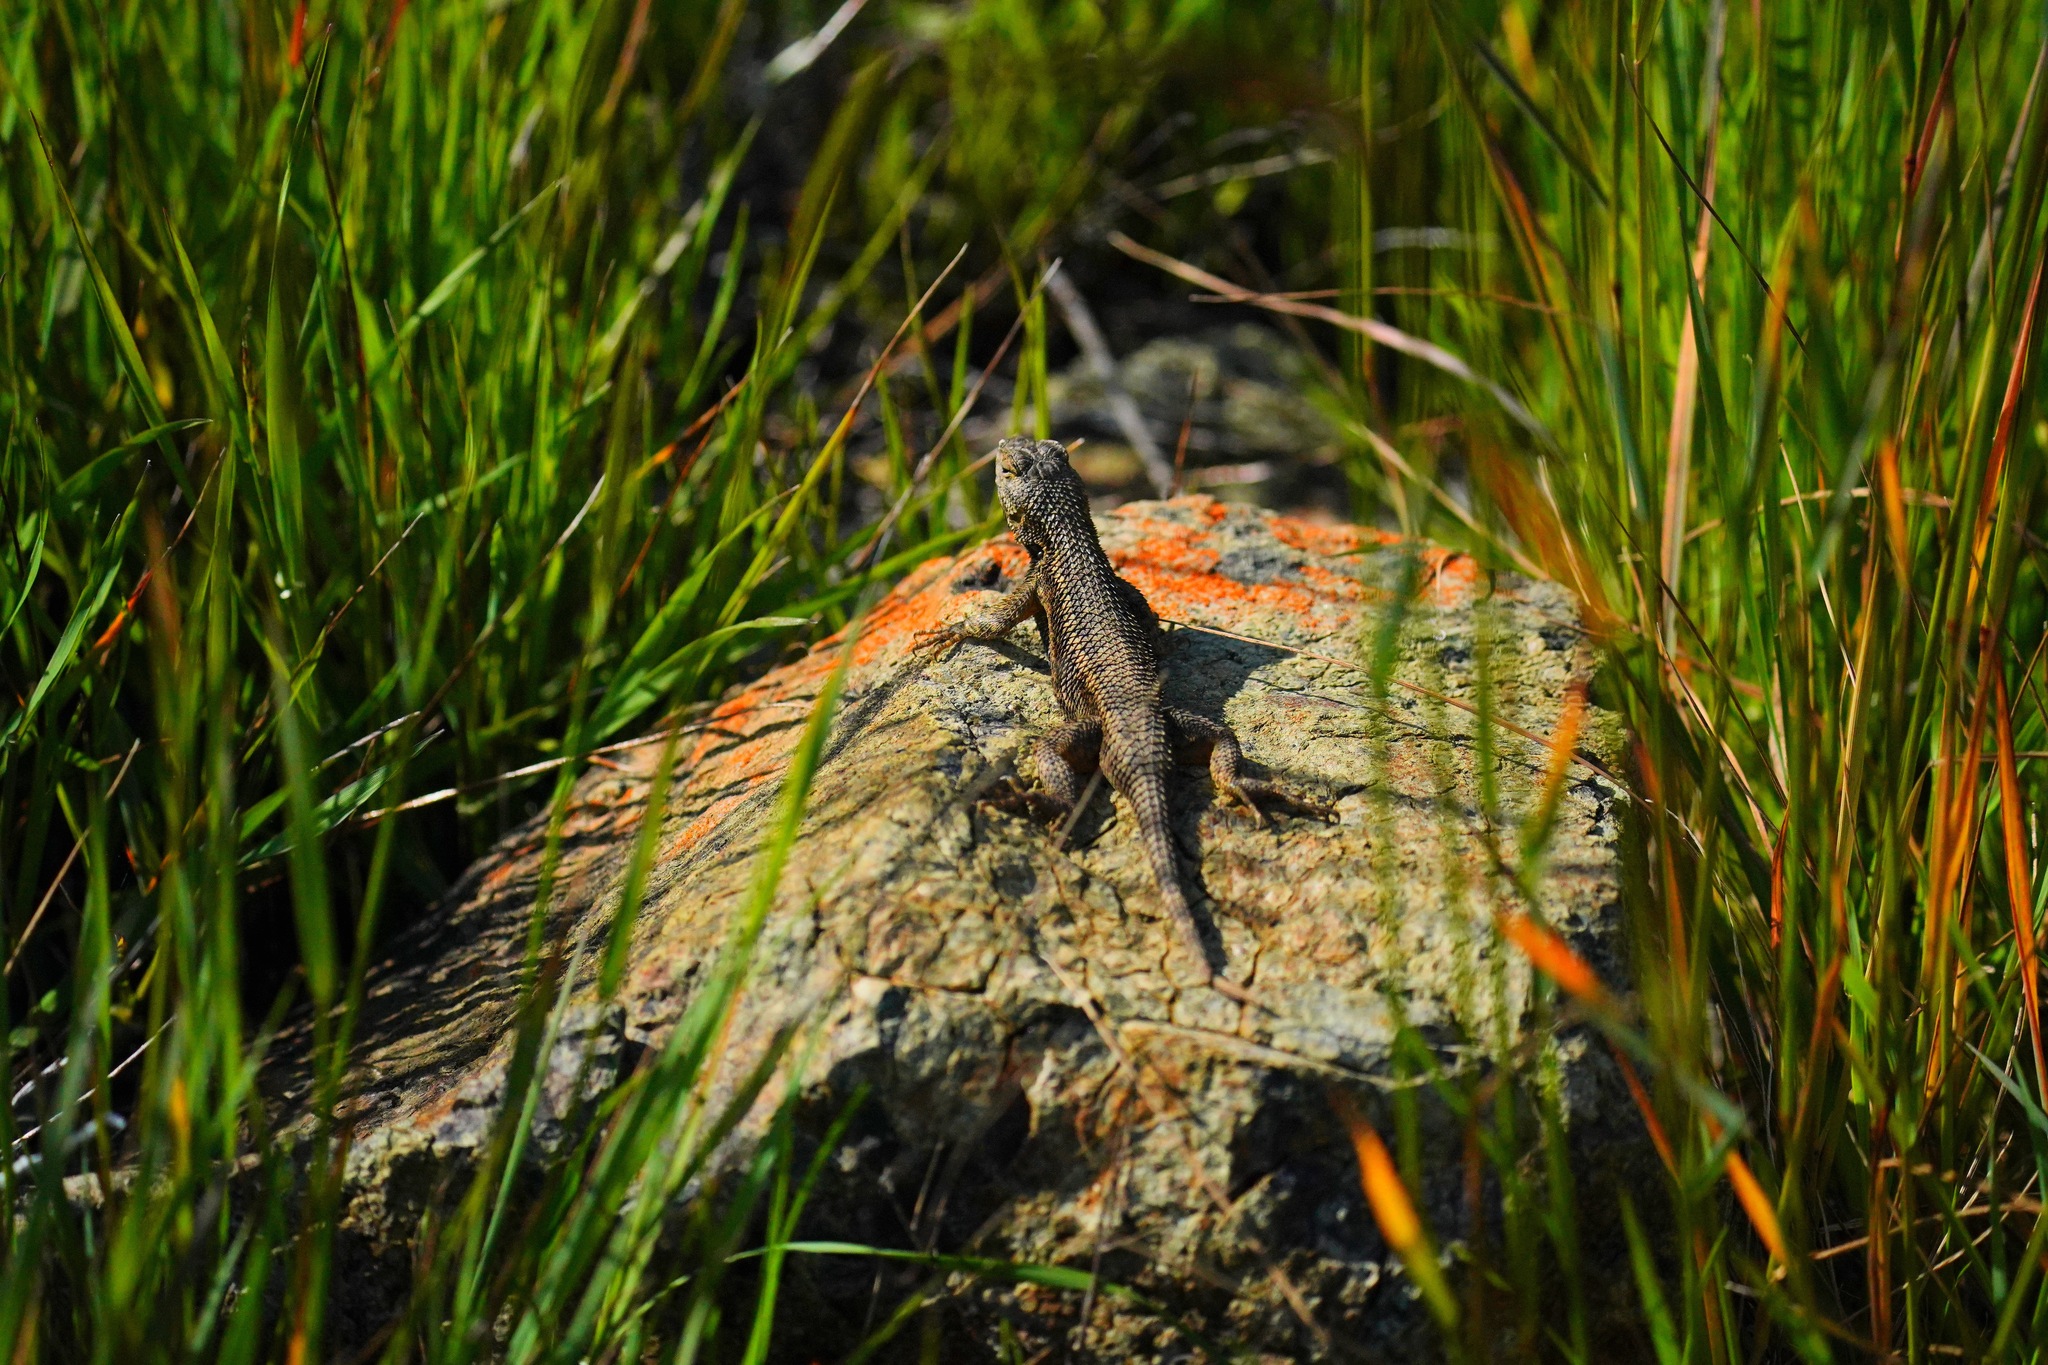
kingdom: Animalia
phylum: Chordata
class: Squamata
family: Phrynosomatidae
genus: Sceloporus
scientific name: Sceloporus occidentalis
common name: Western fence lizard
